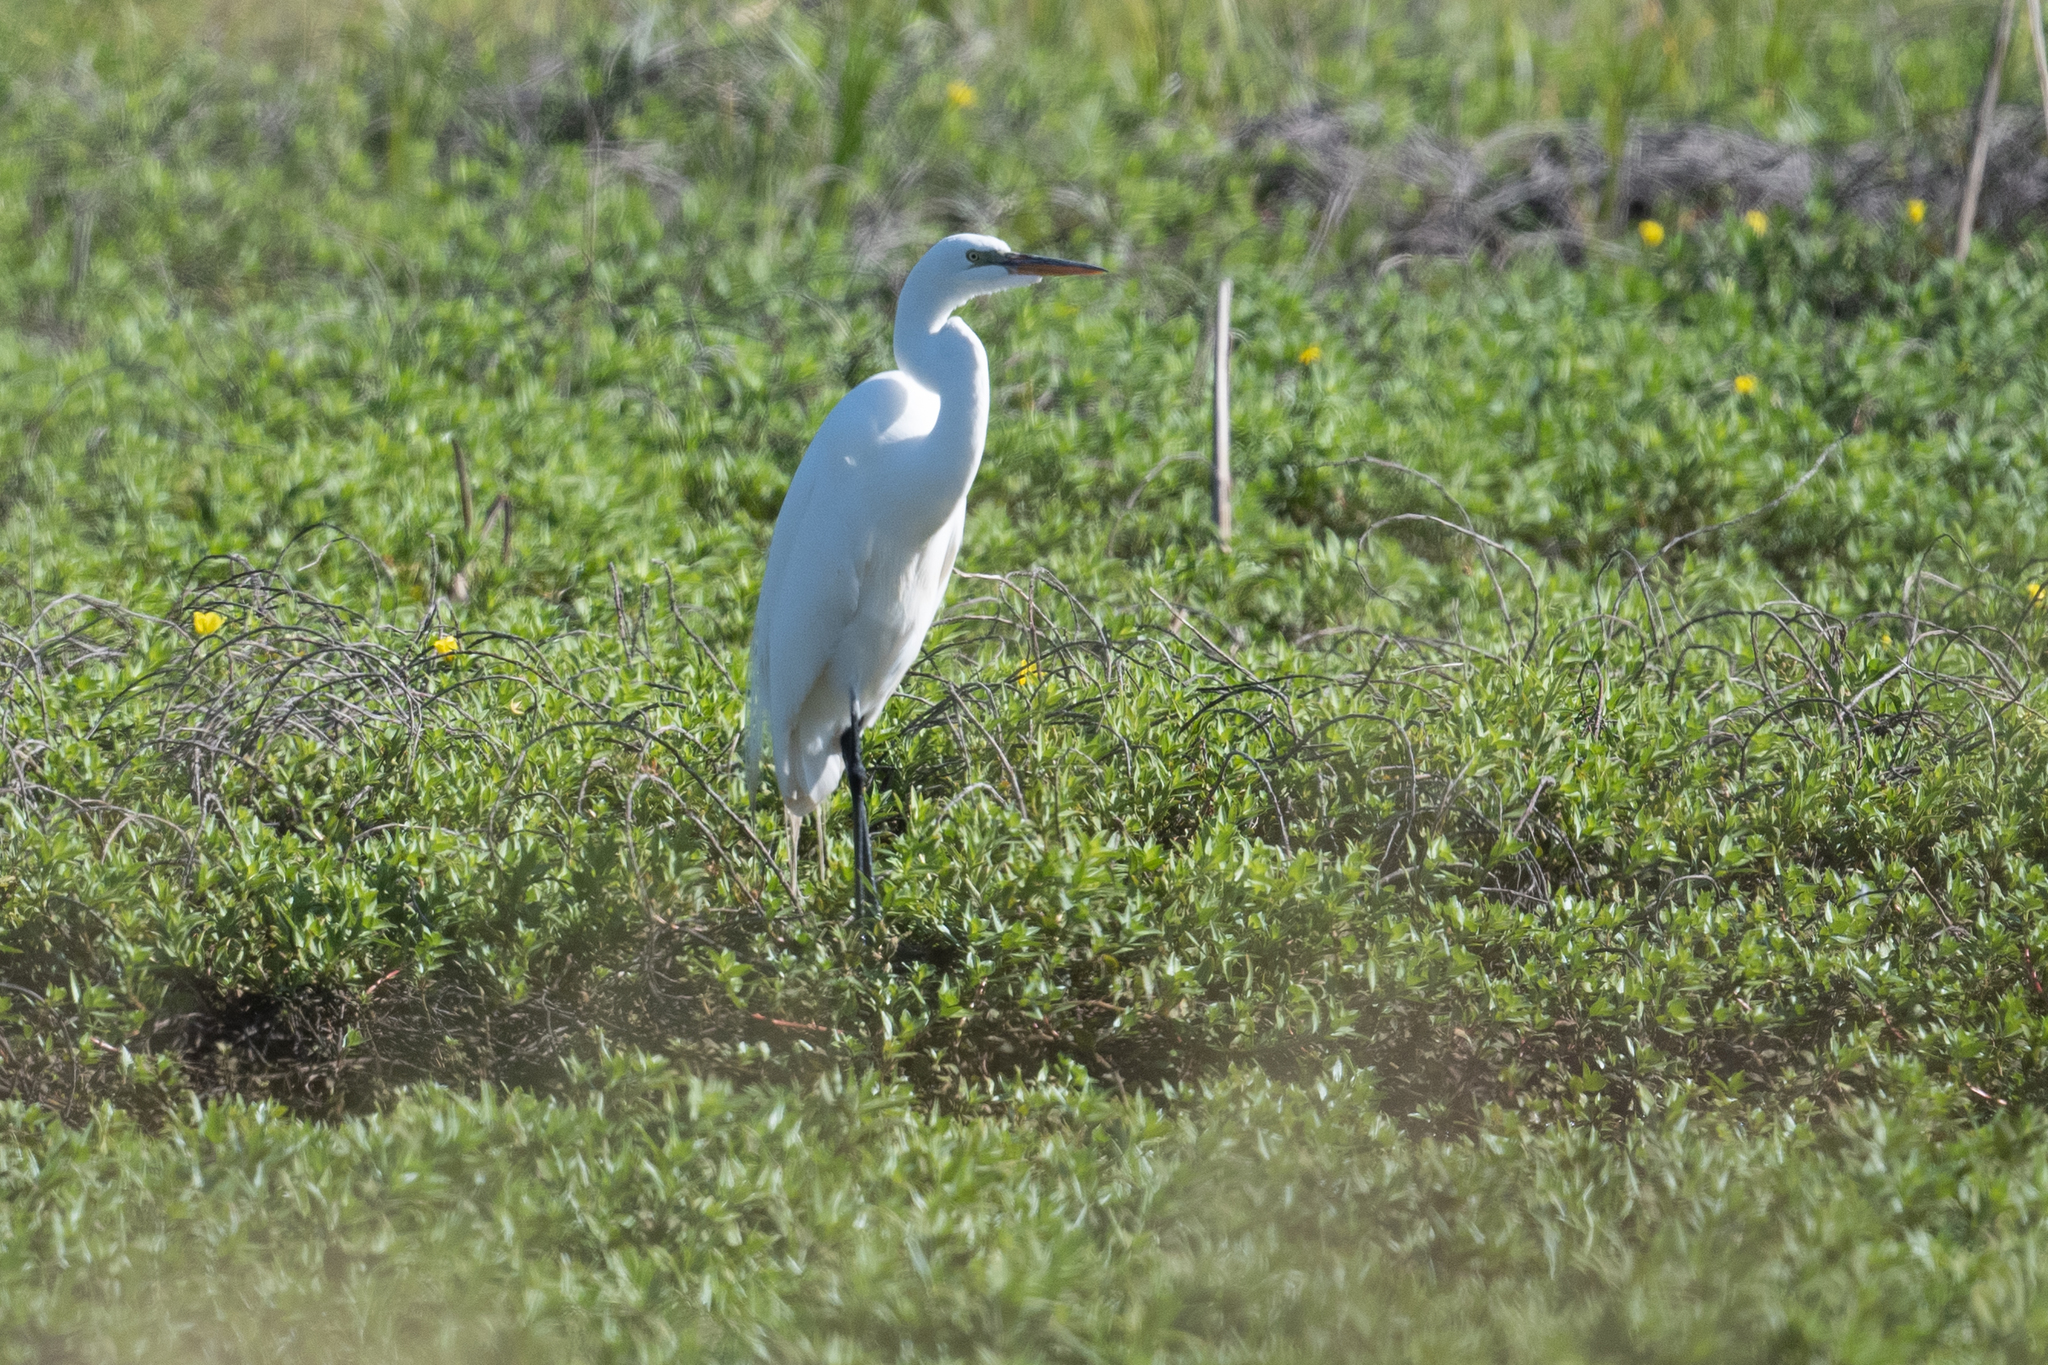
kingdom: Animalia
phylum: Chordata
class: Aves
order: Pelecaniformes
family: Ardeidae
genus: Ardea
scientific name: Ardea alba
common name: Great egret
